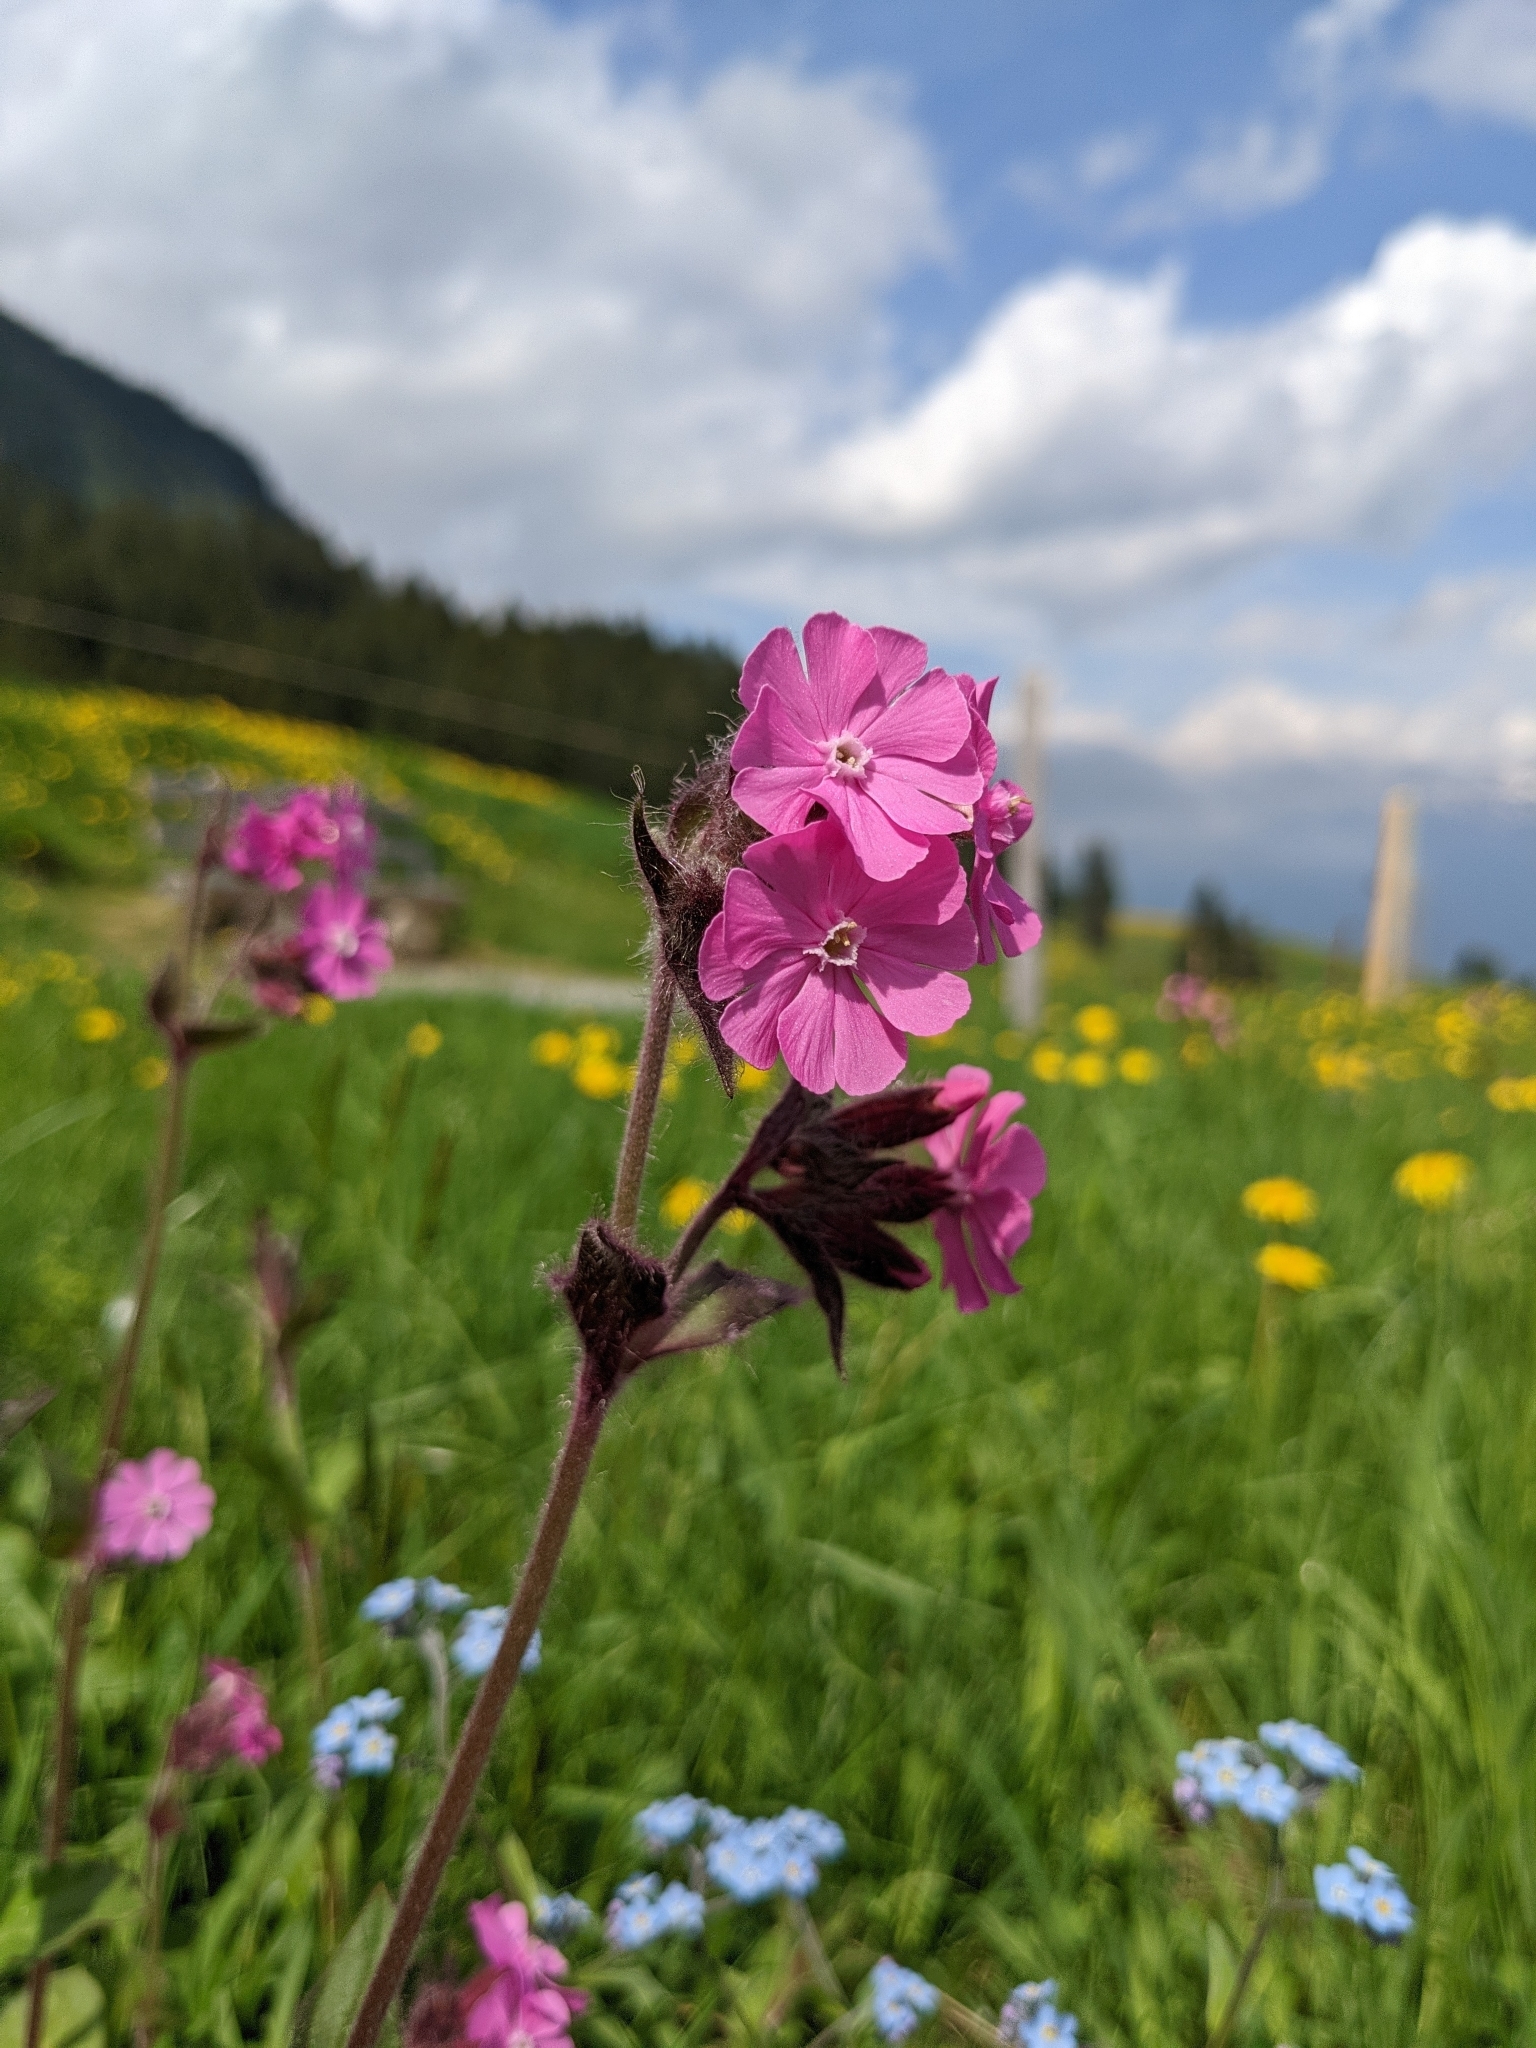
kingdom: Plantae
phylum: Tracheophyta
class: Magnoliopsida
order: Caryophyllales
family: Caryophyllaceae
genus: Silene
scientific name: Silene dioica
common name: Red campion
